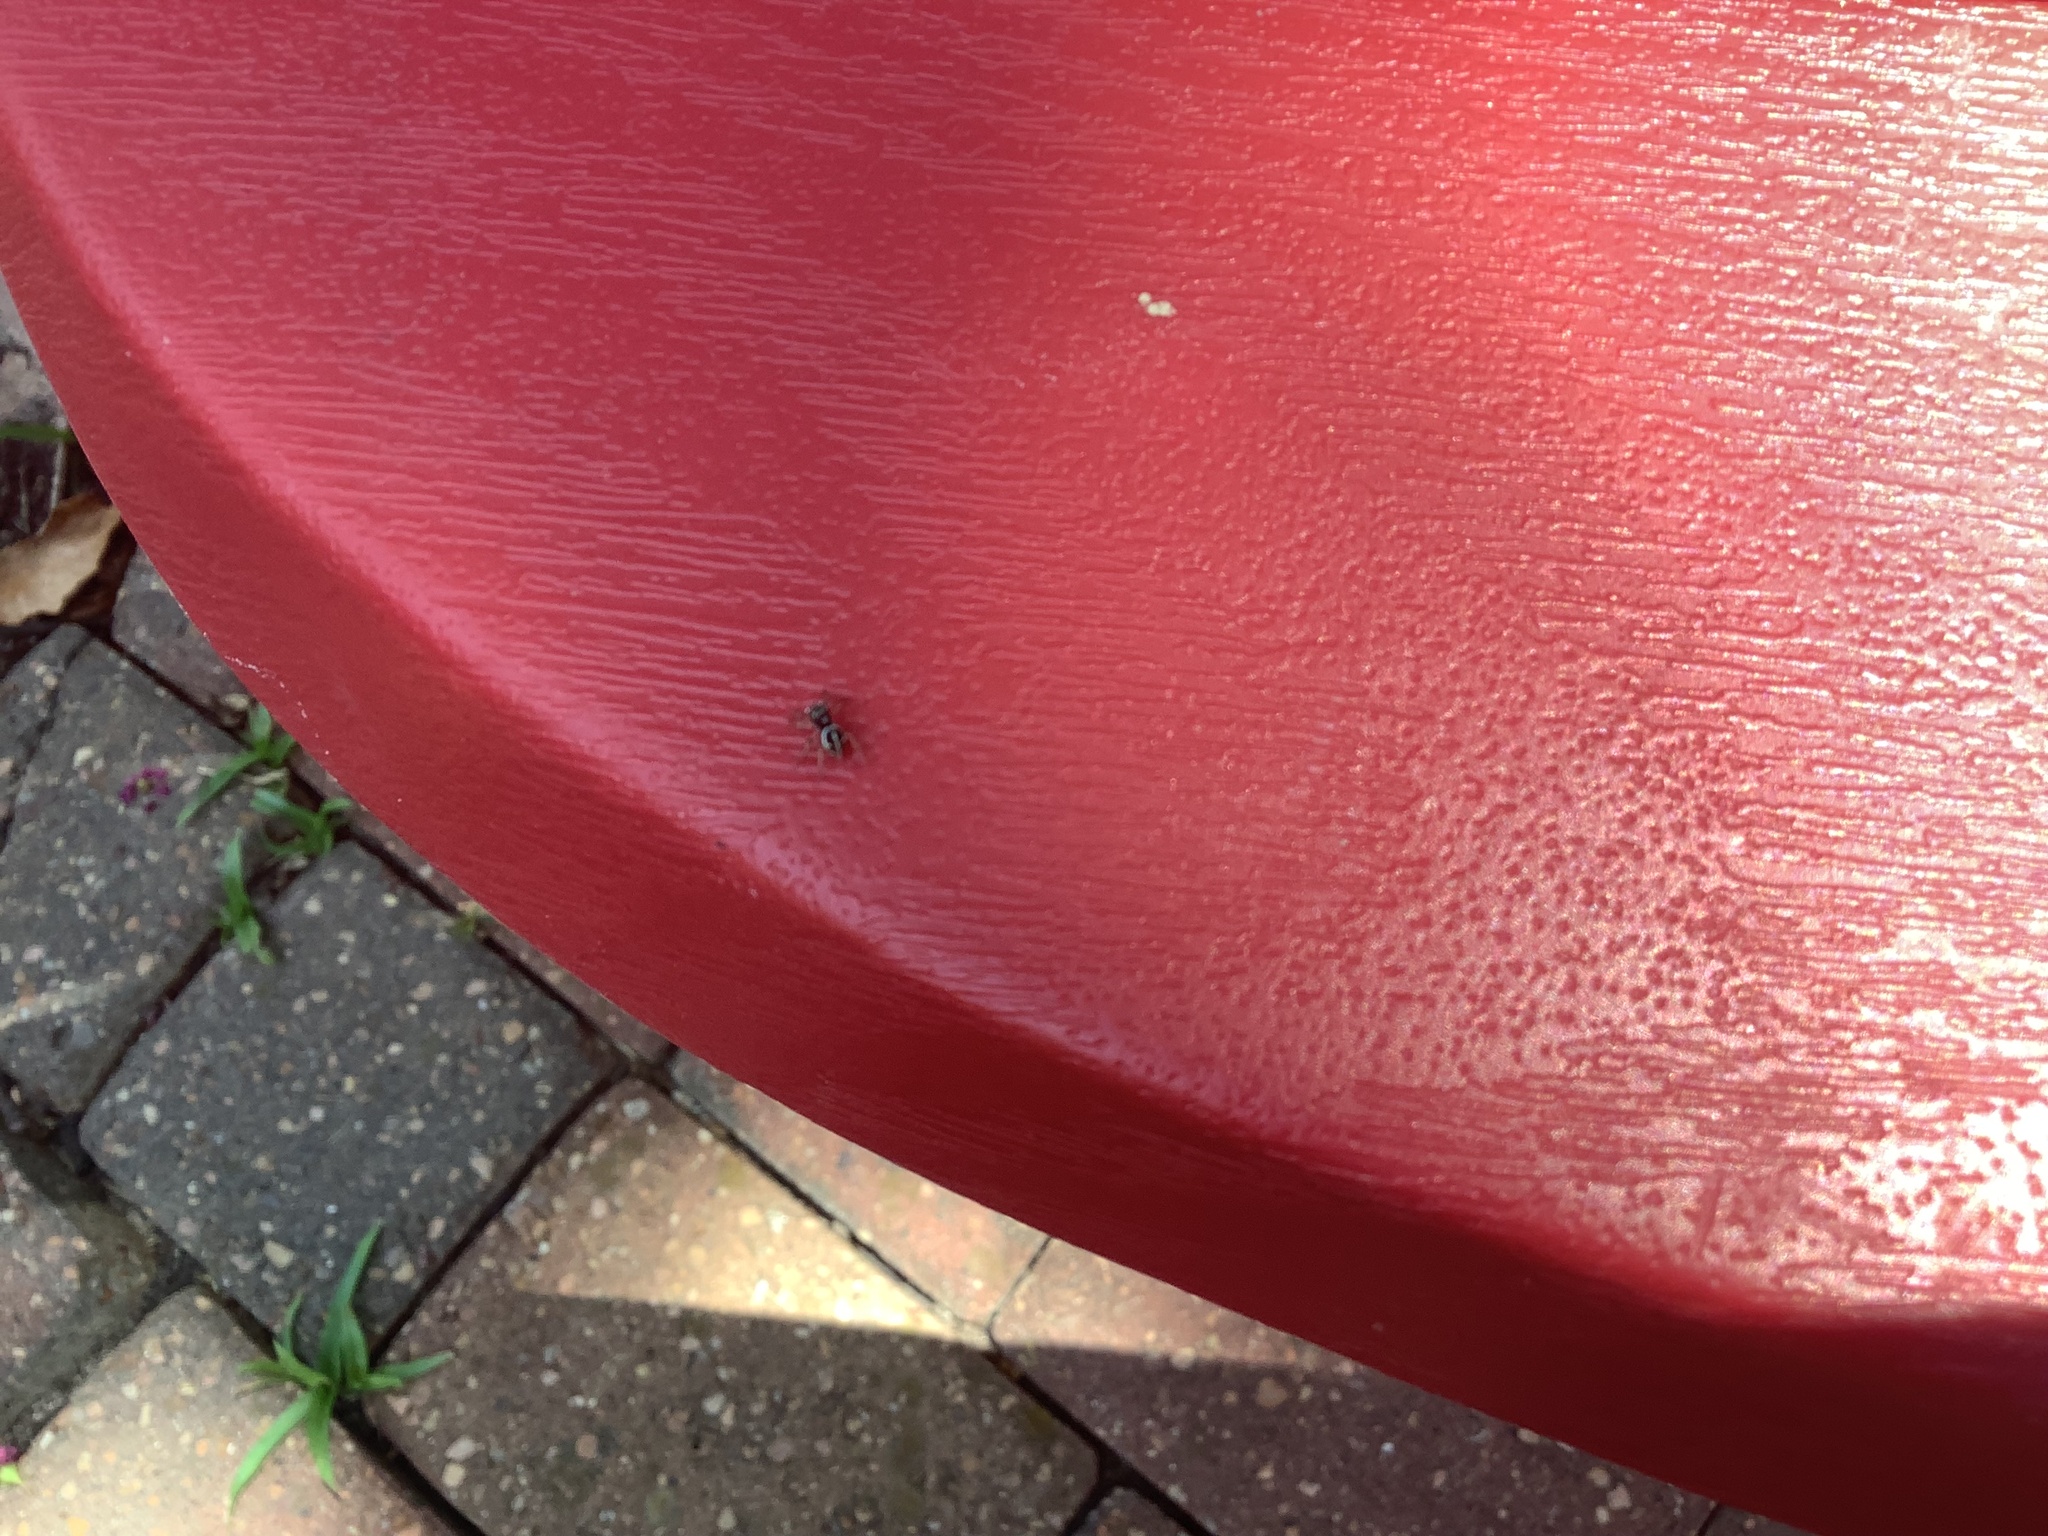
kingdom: Animalia
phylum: Arthropoda
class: Arachnida
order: Araneae
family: Salticidae
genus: Anasaitis
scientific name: Anasaitis canosa
